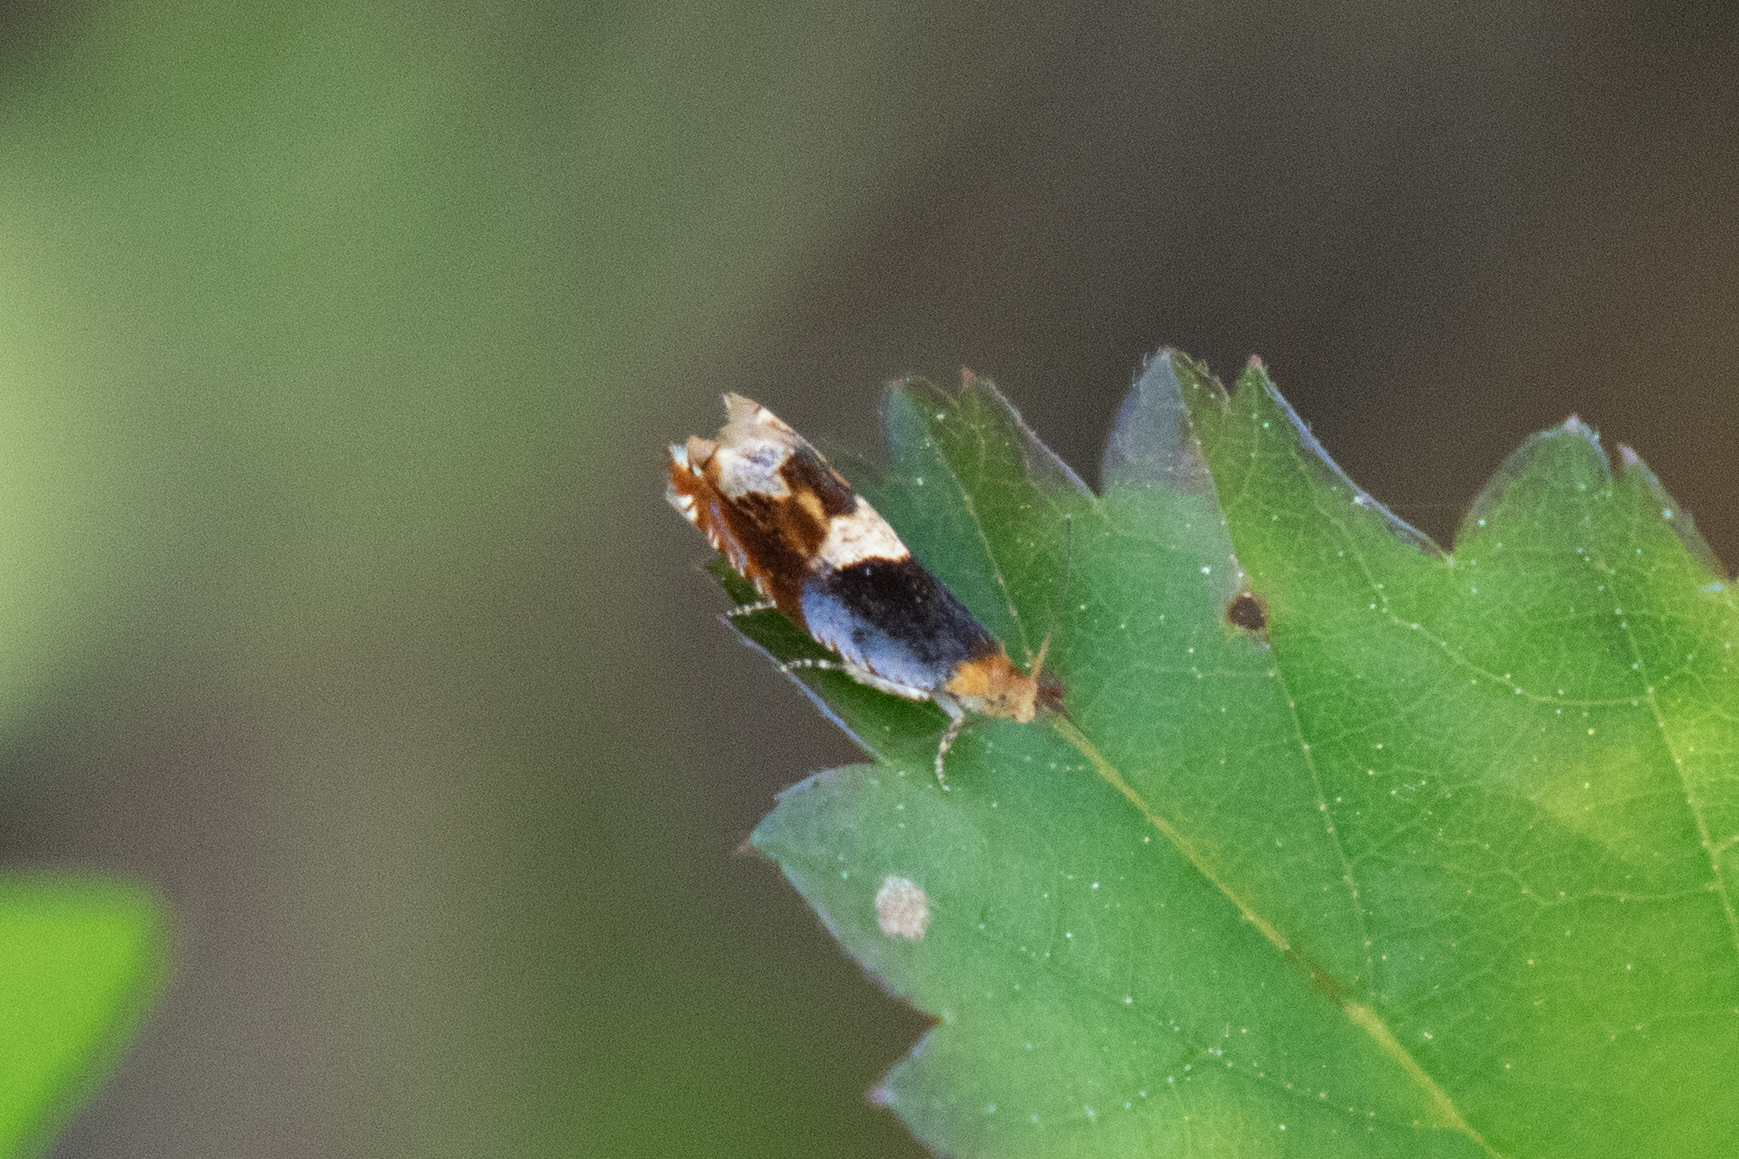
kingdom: Animalia
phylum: Arthropoda
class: Insecta
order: Lepidoptera
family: Tortricidae
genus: Ancylis
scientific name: Ancylis muricana
